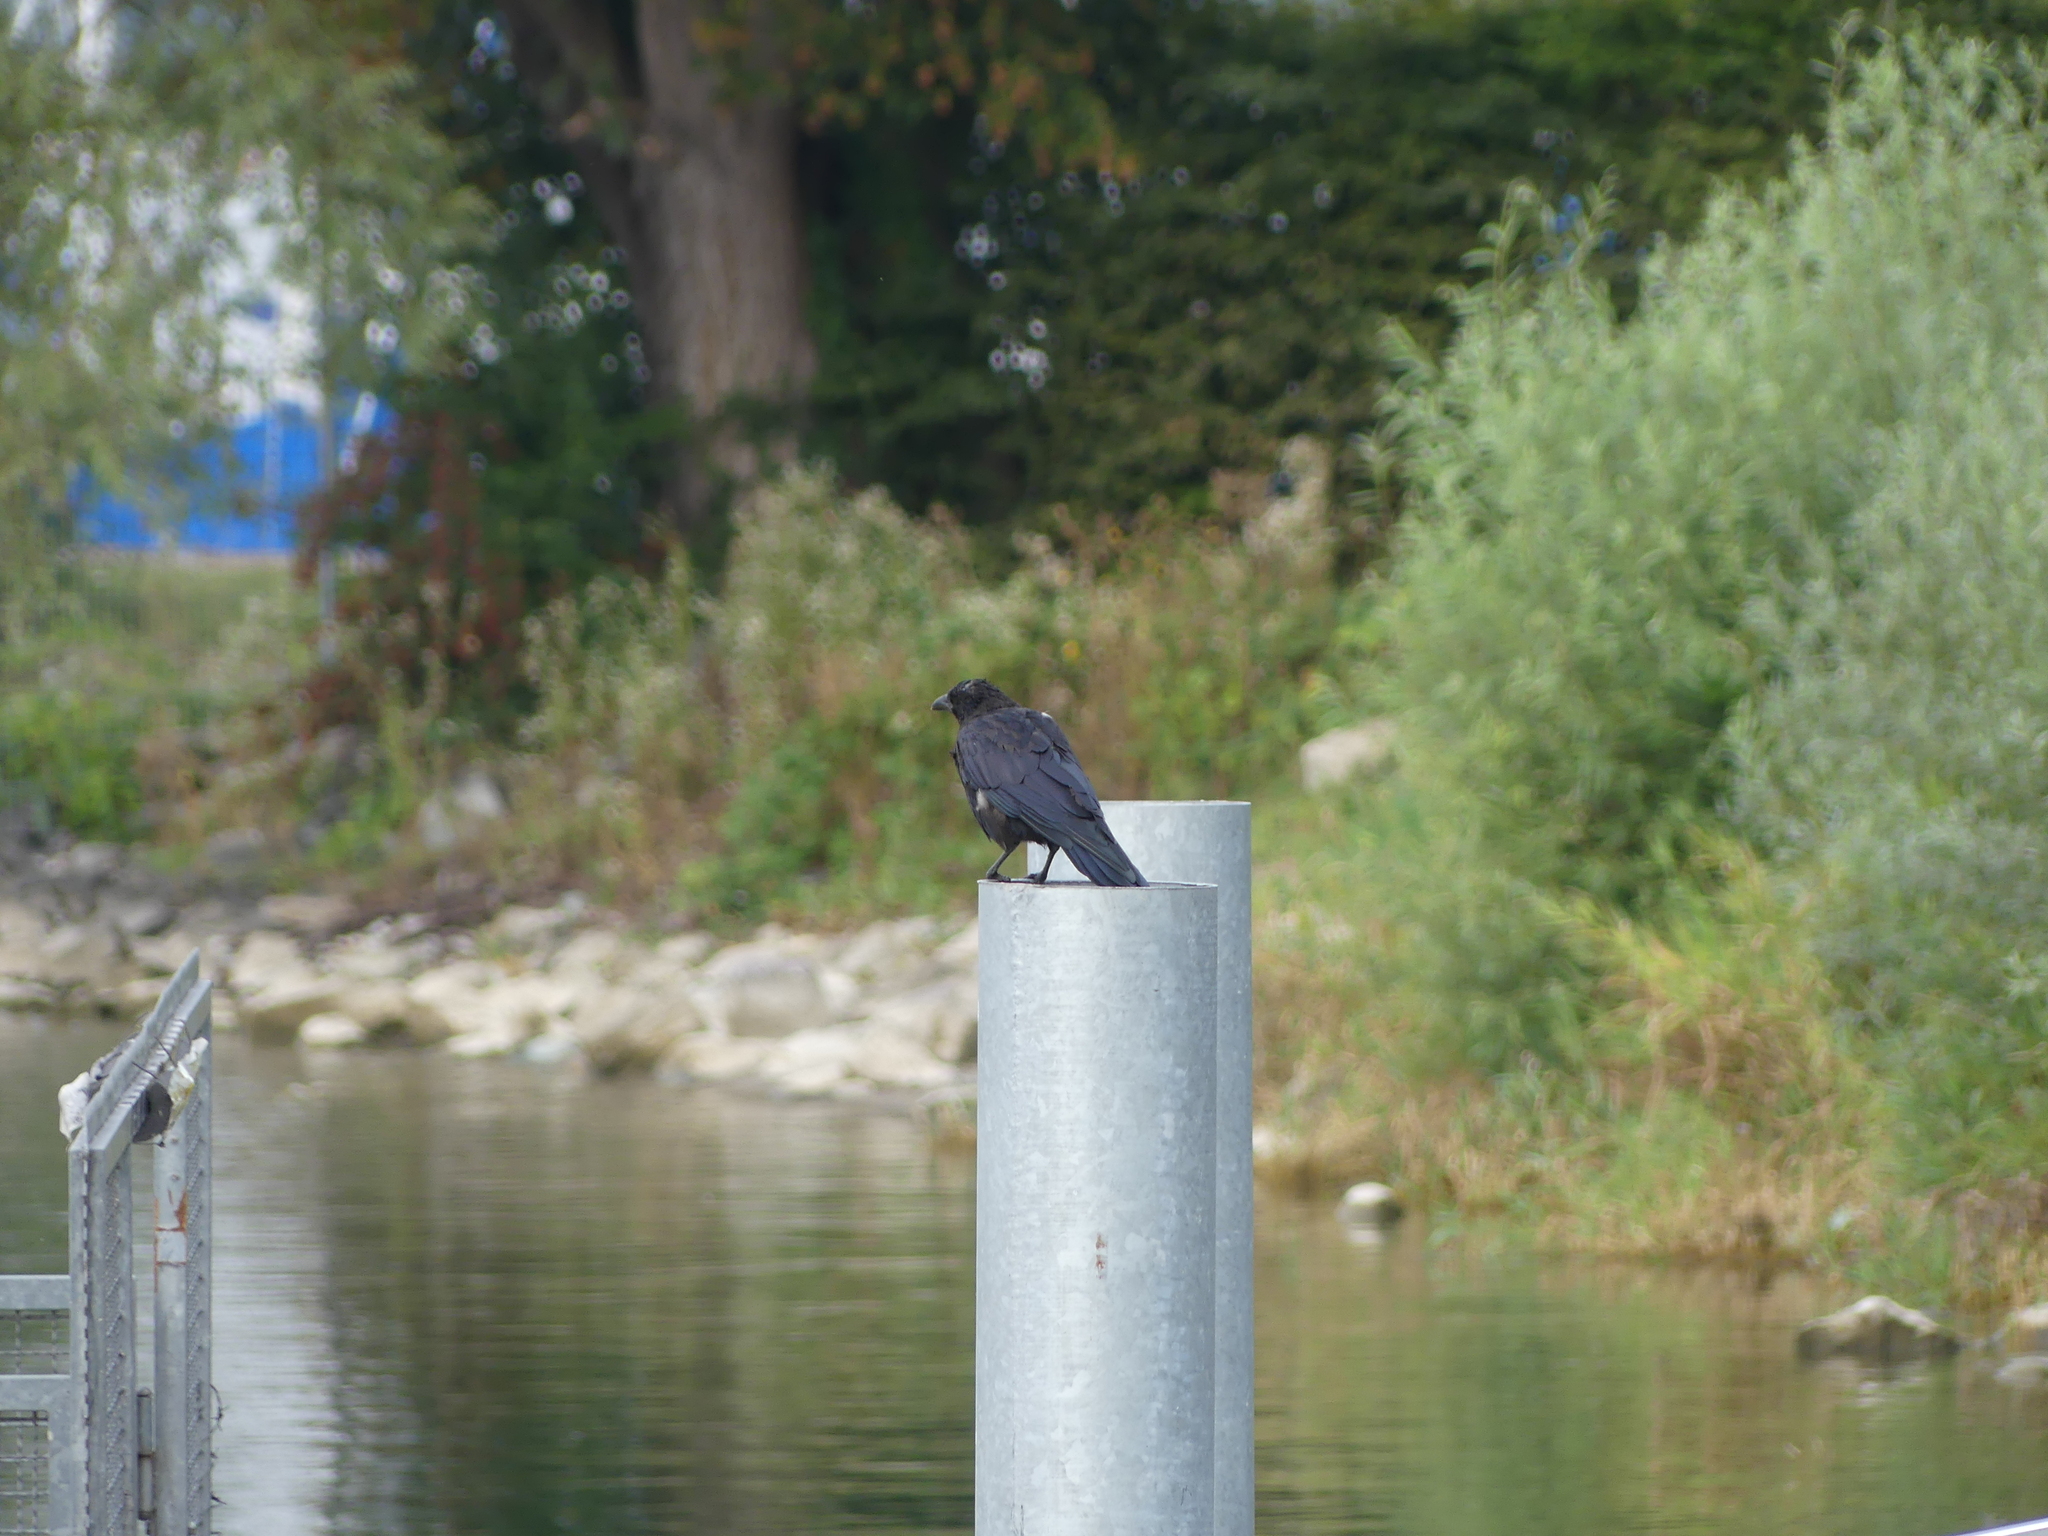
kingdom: Animalia
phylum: Chordata
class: Aves
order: Passeriformes
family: Corvidae
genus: Corvus
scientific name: Corvus corone
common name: Carrion crow
